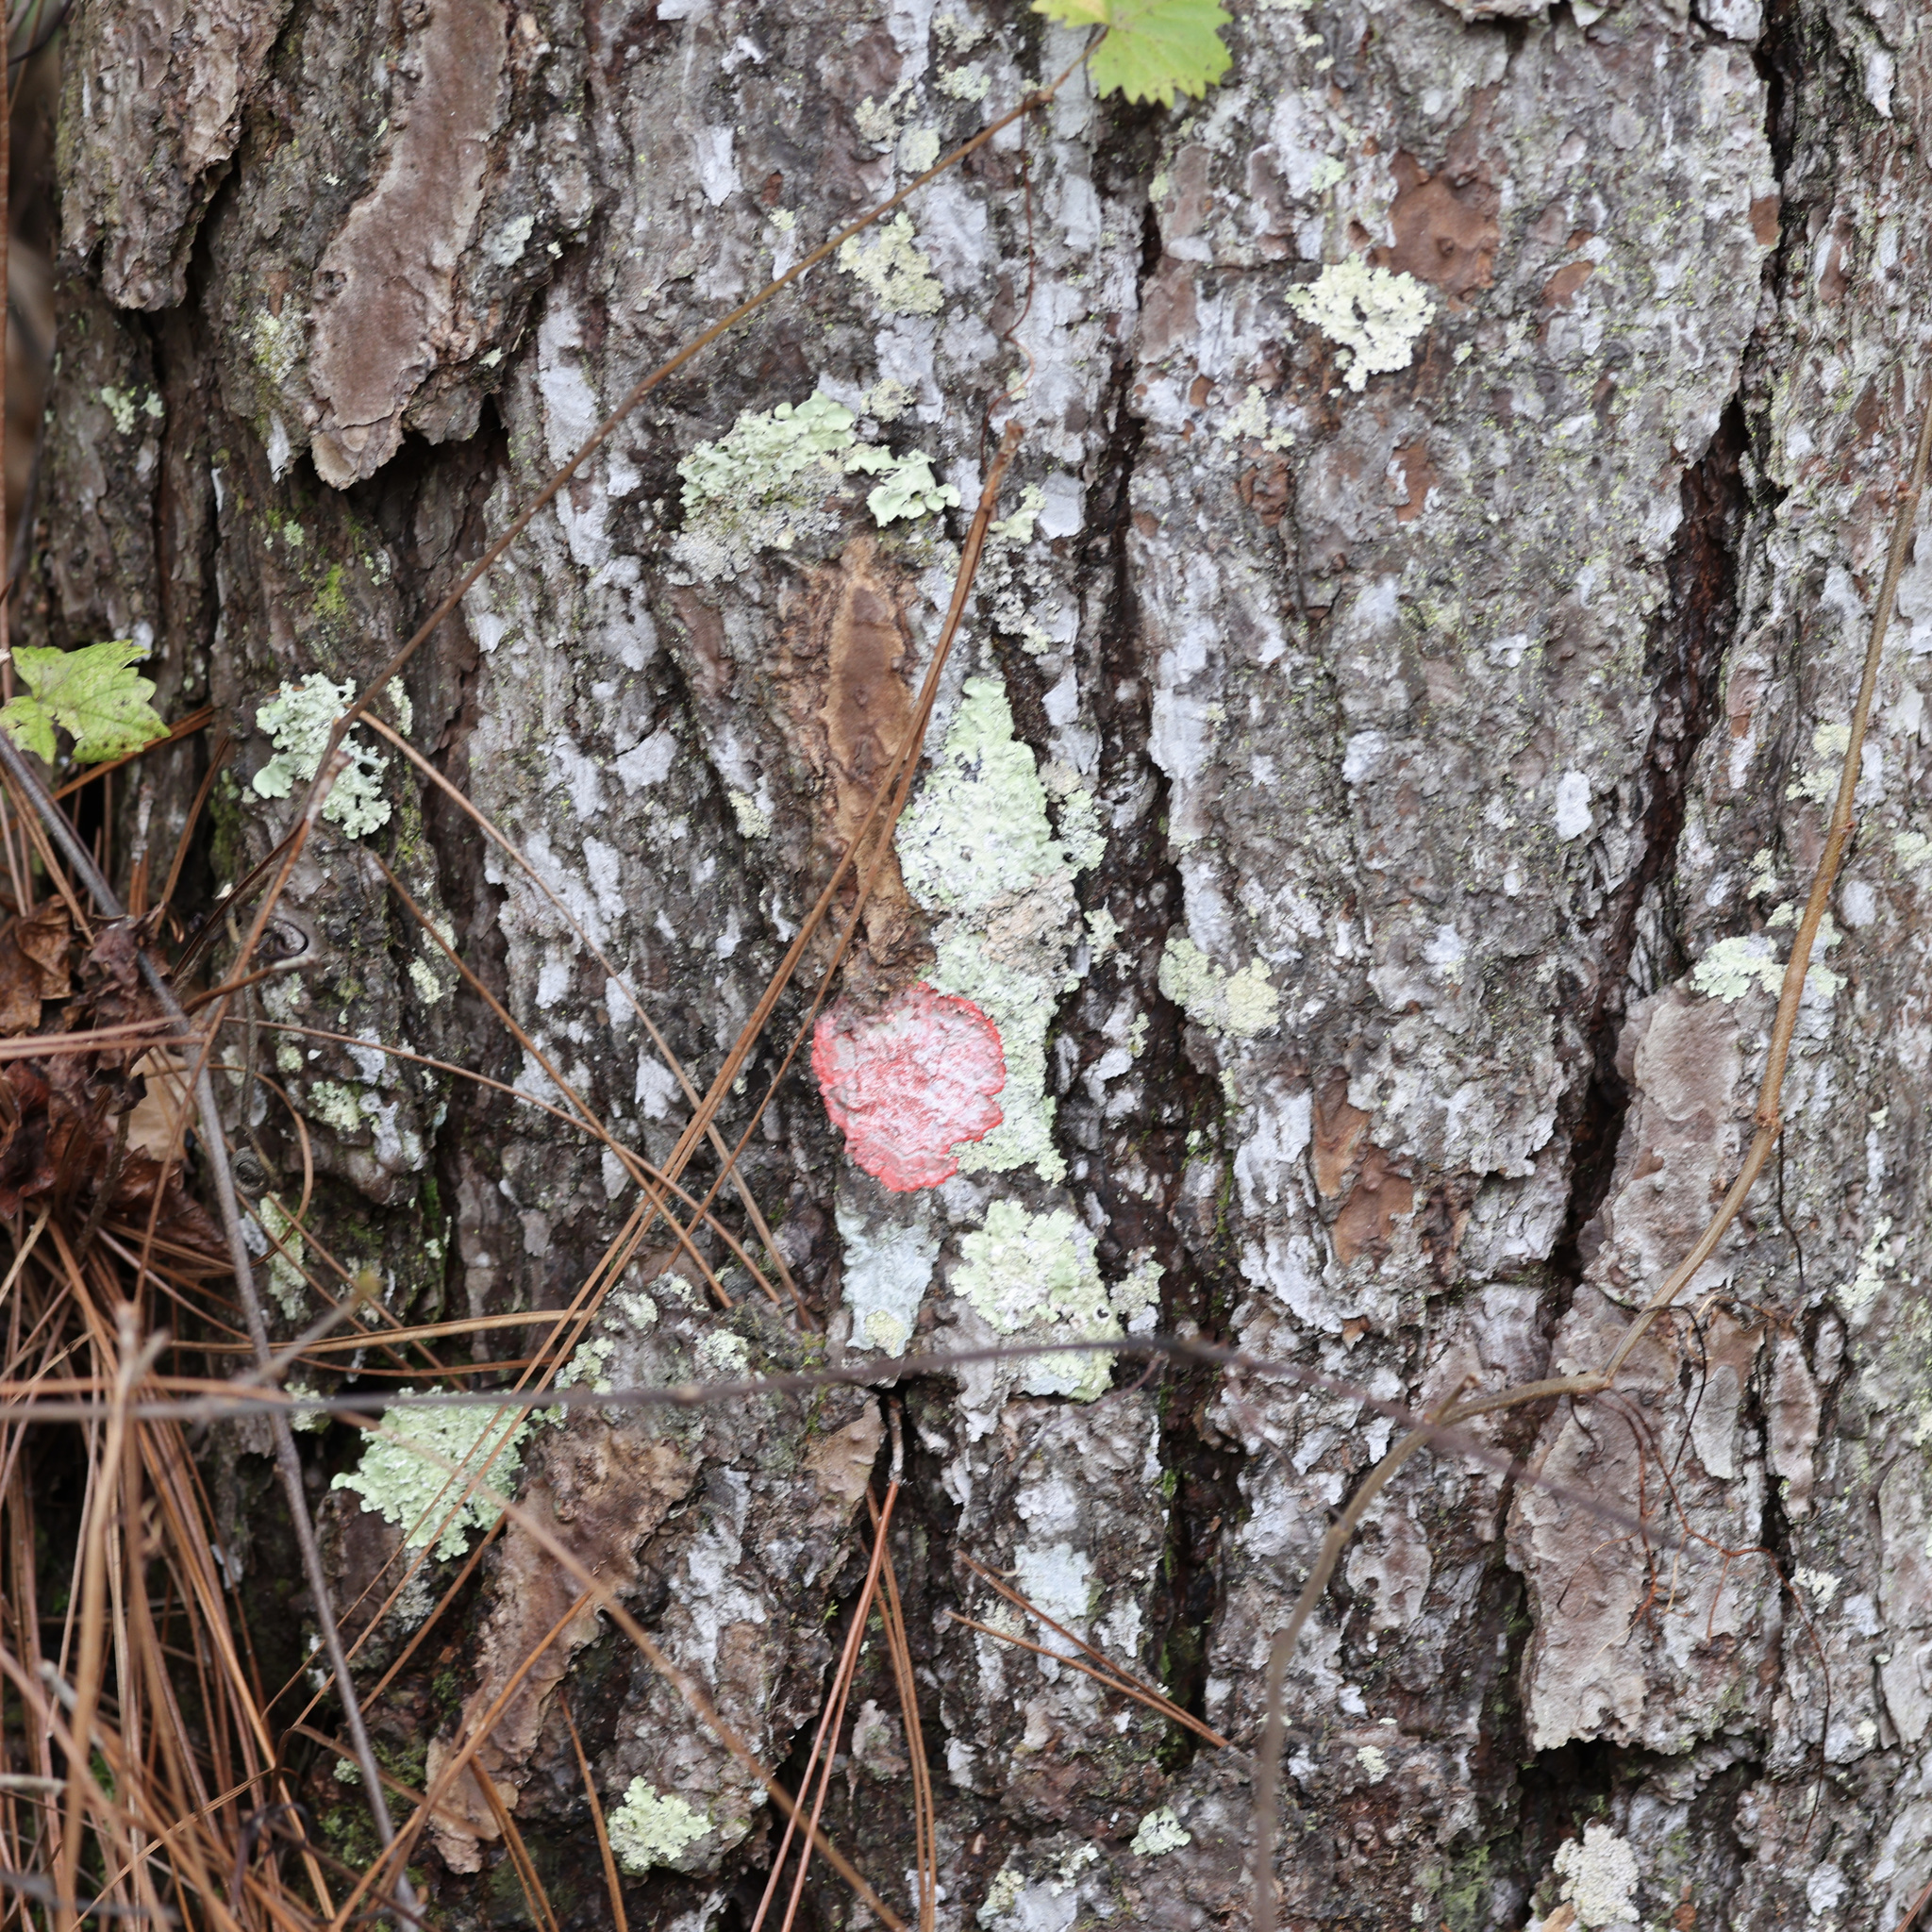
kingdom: Fungi
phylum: Ascomycota
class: Arthoniomycetes
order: Arthoniales
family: Arthoniaceae
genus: Herpothallon
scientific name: Herpothallon rubrocinctum
